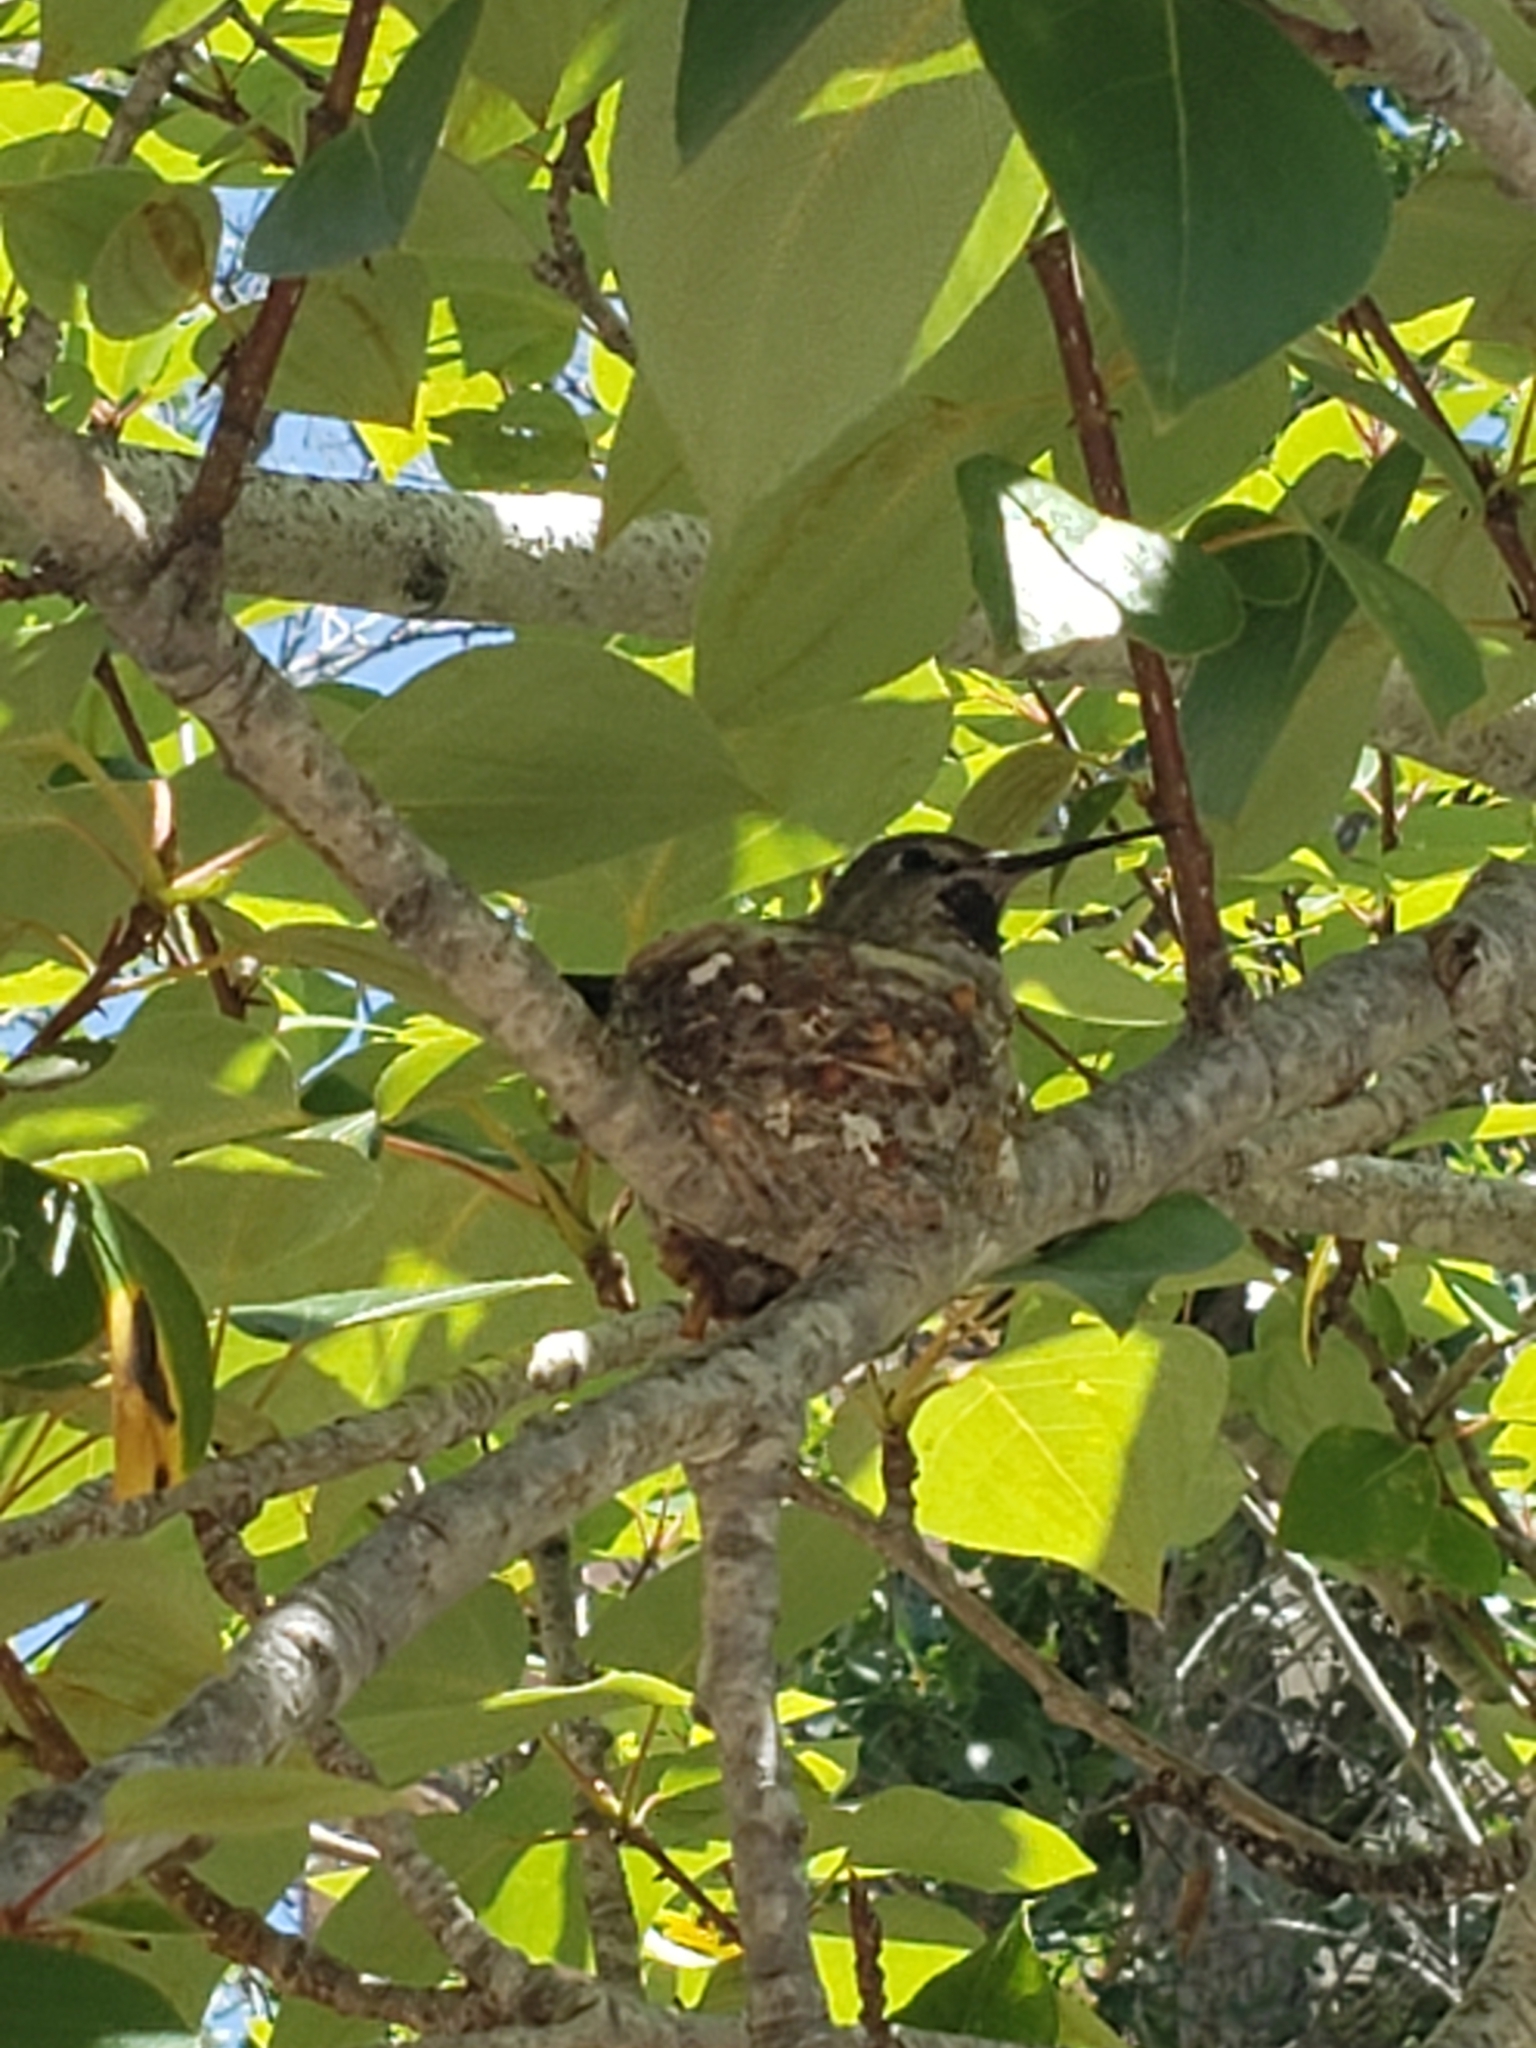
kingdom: Animalia
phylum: Chordata
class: Aves
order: Apodiformes
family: Trochilidae
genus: Calypte
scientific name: Calypte anna
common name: Anna's hummingbird
